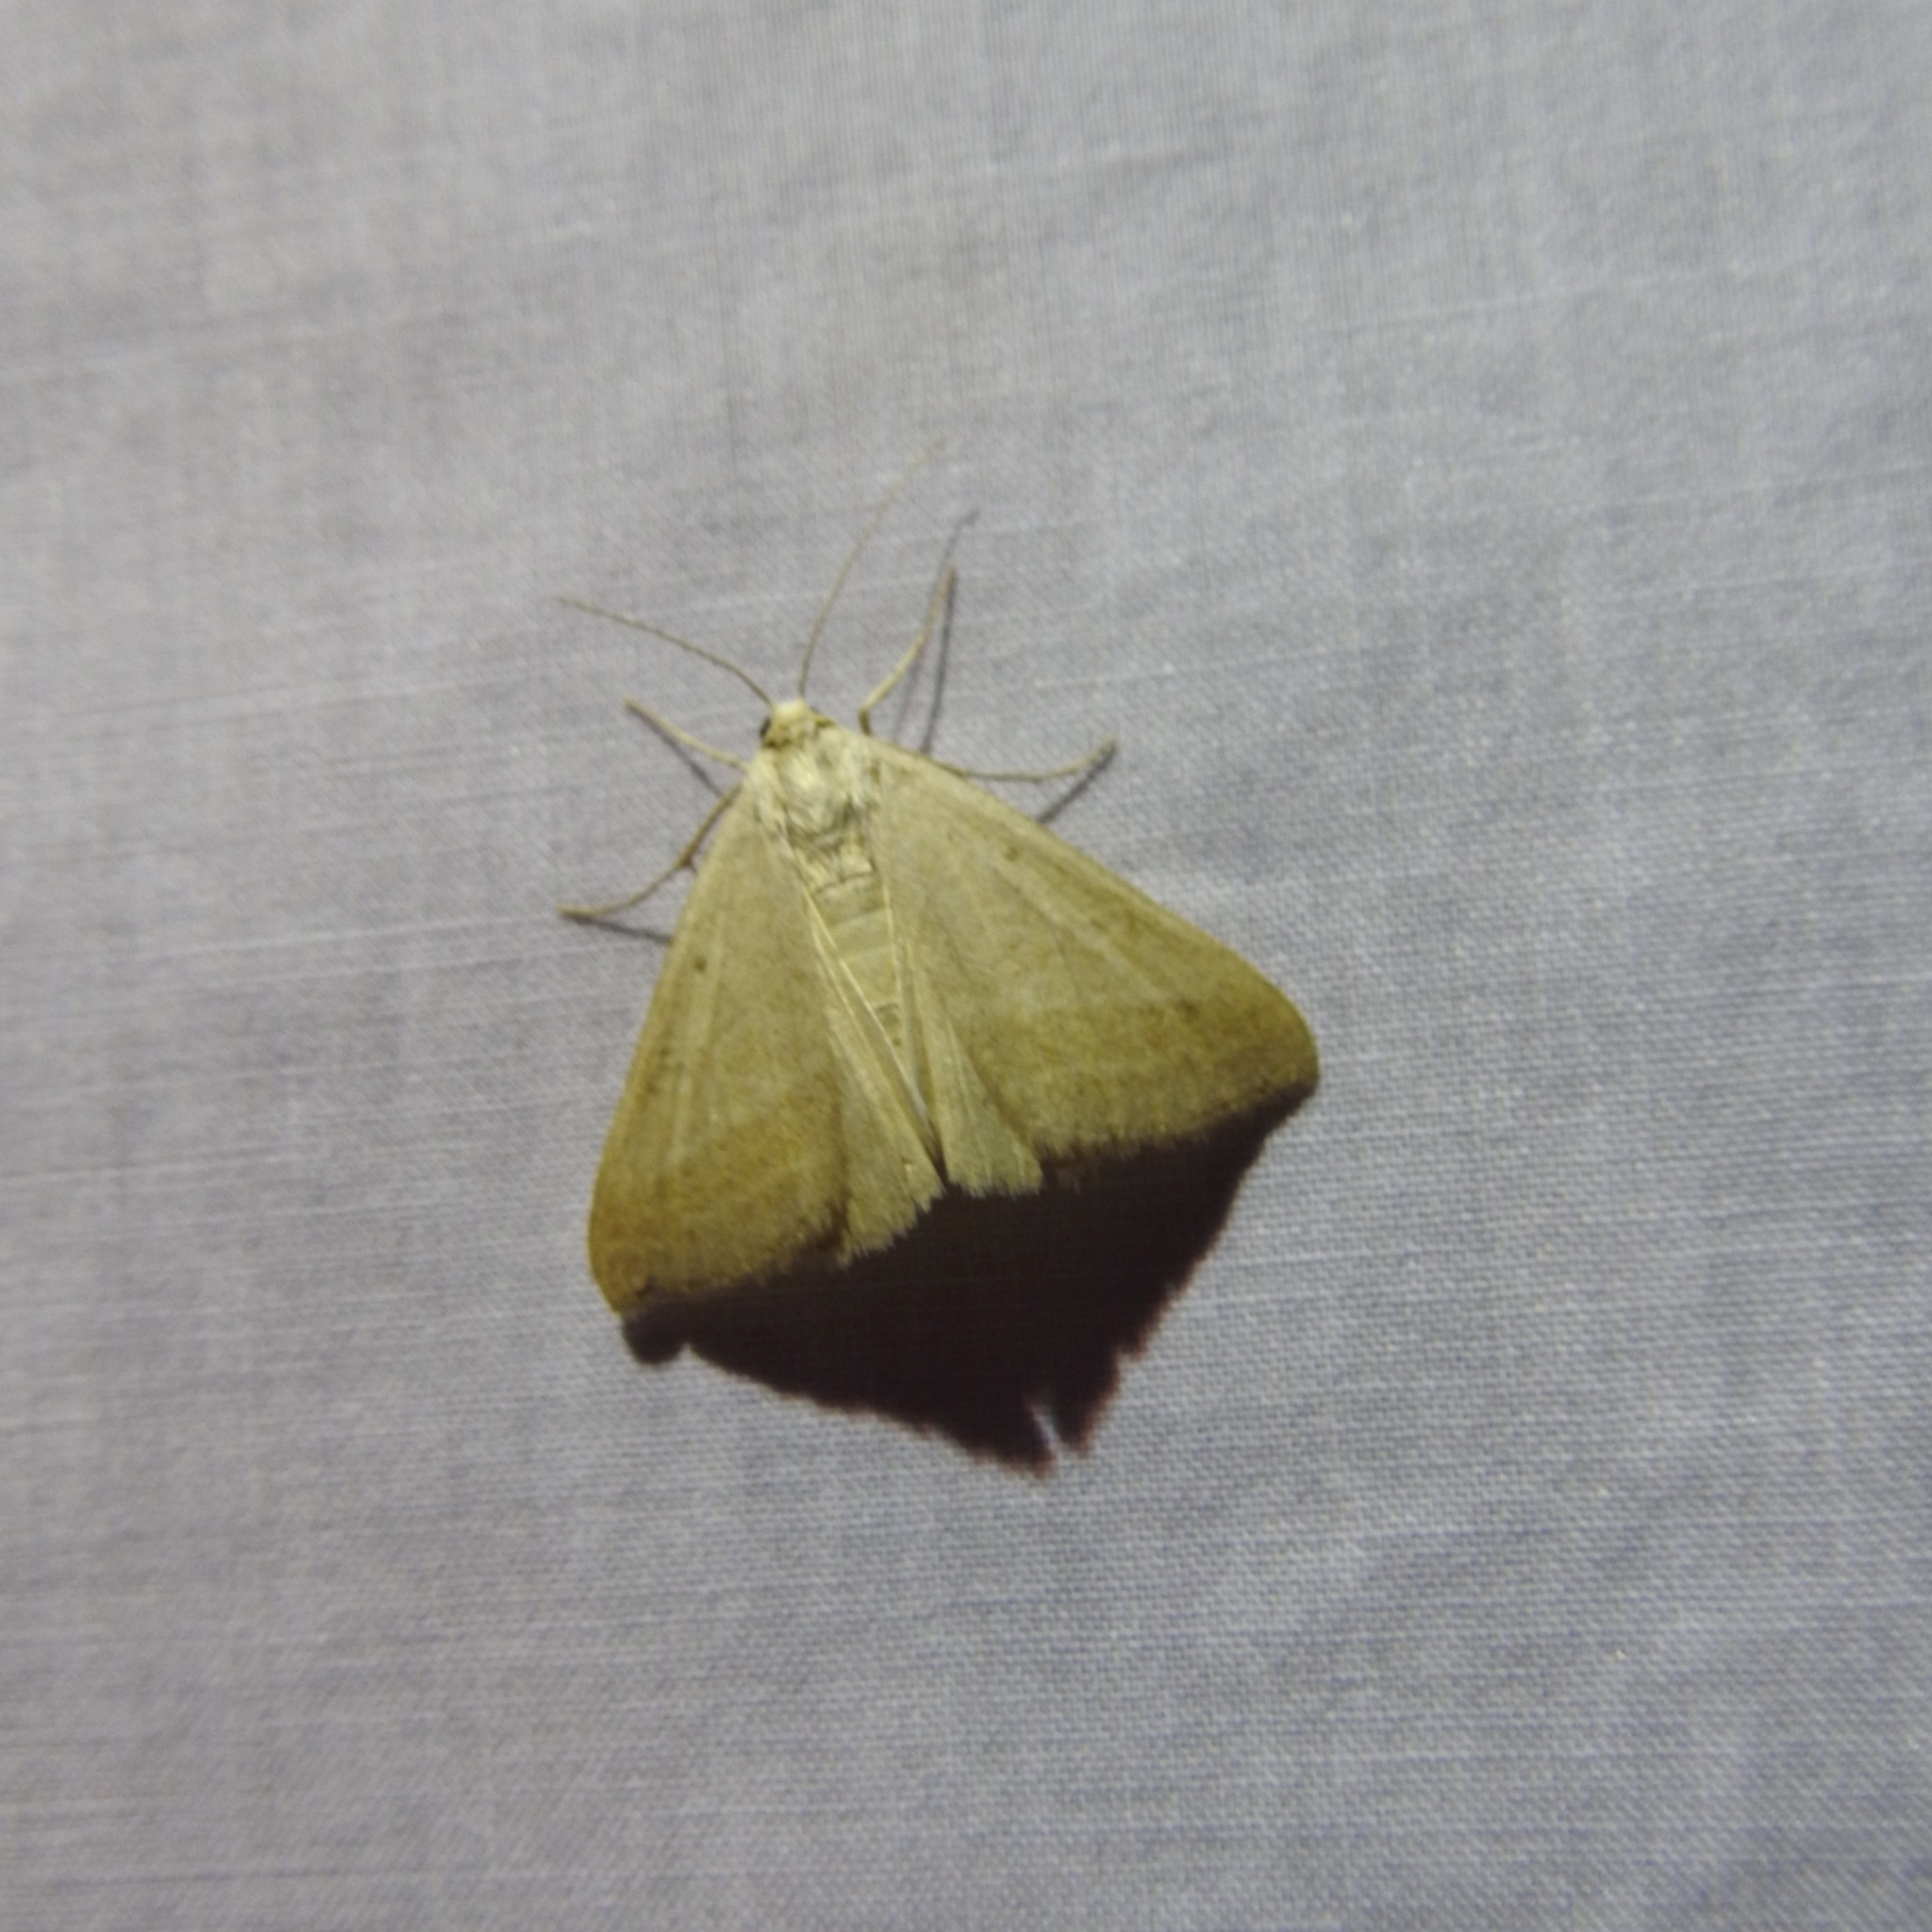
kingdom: Animalia
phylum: Arthropoda
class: Insecta
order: Lepidoptera
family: Erebidae
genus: Caenurgia
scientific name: Caenurgia togataria
